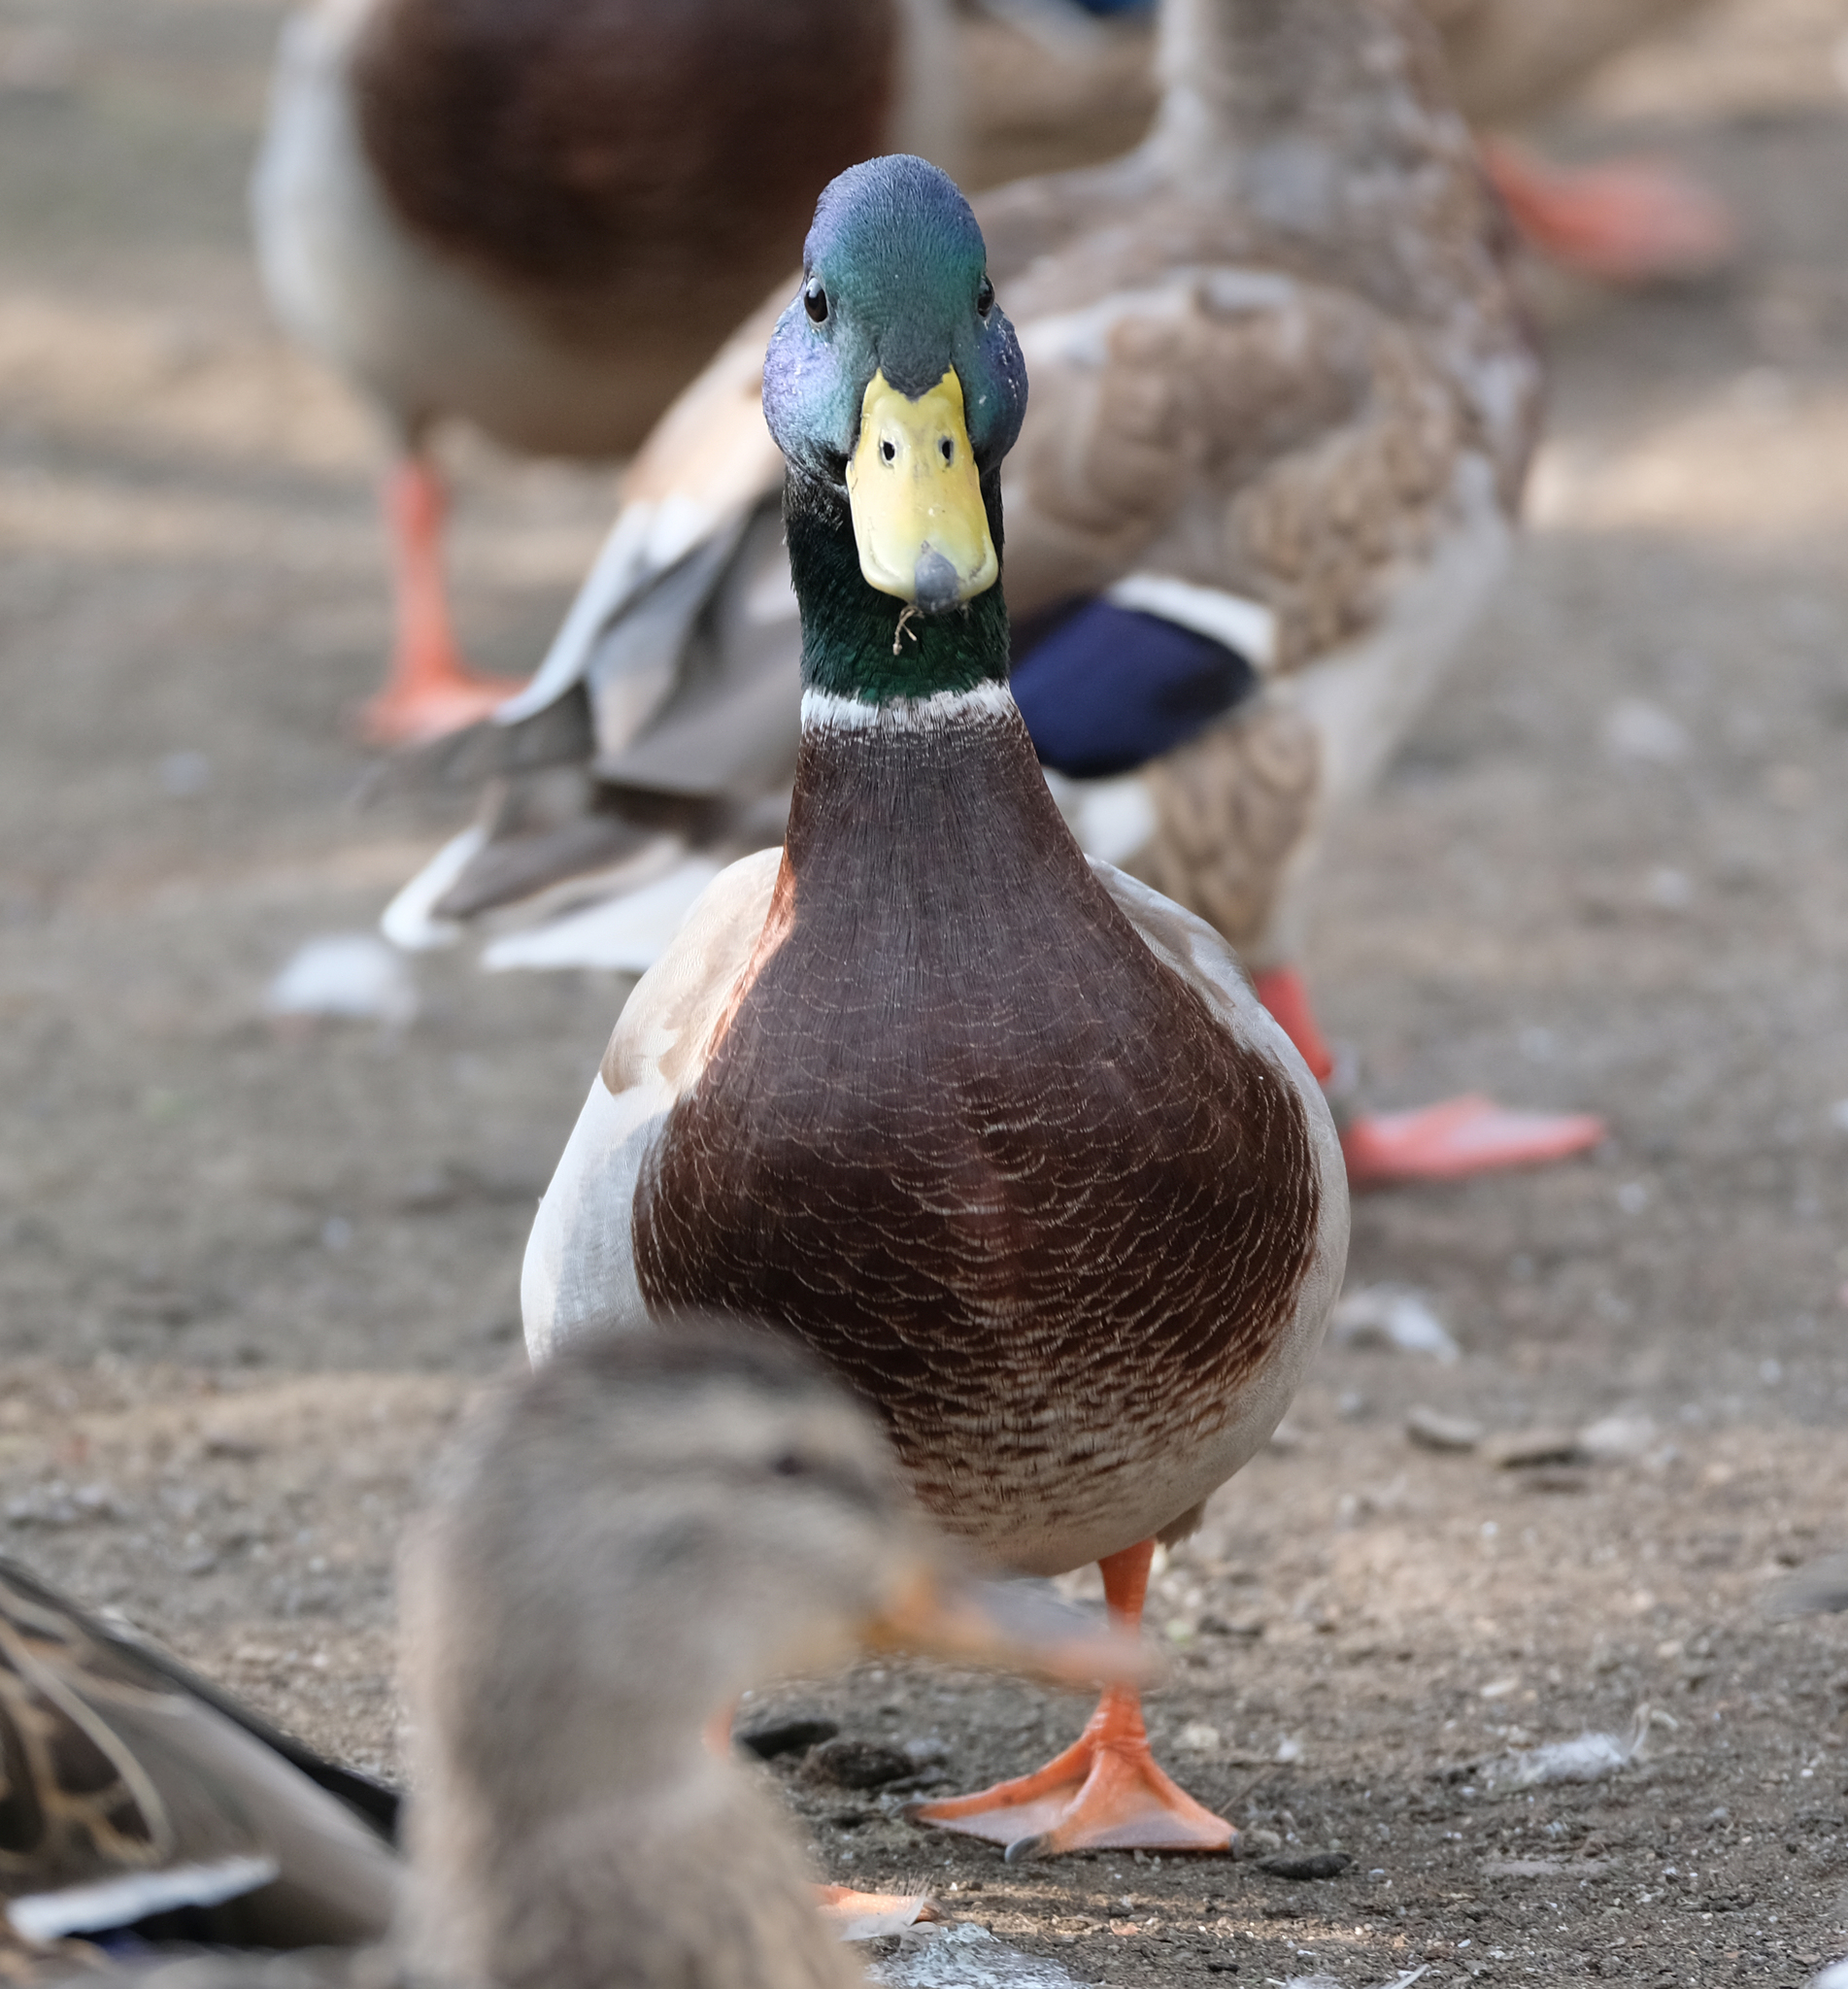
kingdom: Animalia
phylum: Chordata
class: Aves
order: Anseriformes
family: Anatidae
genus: Anas
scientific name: Anas platyrhynchos
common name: Mallard
